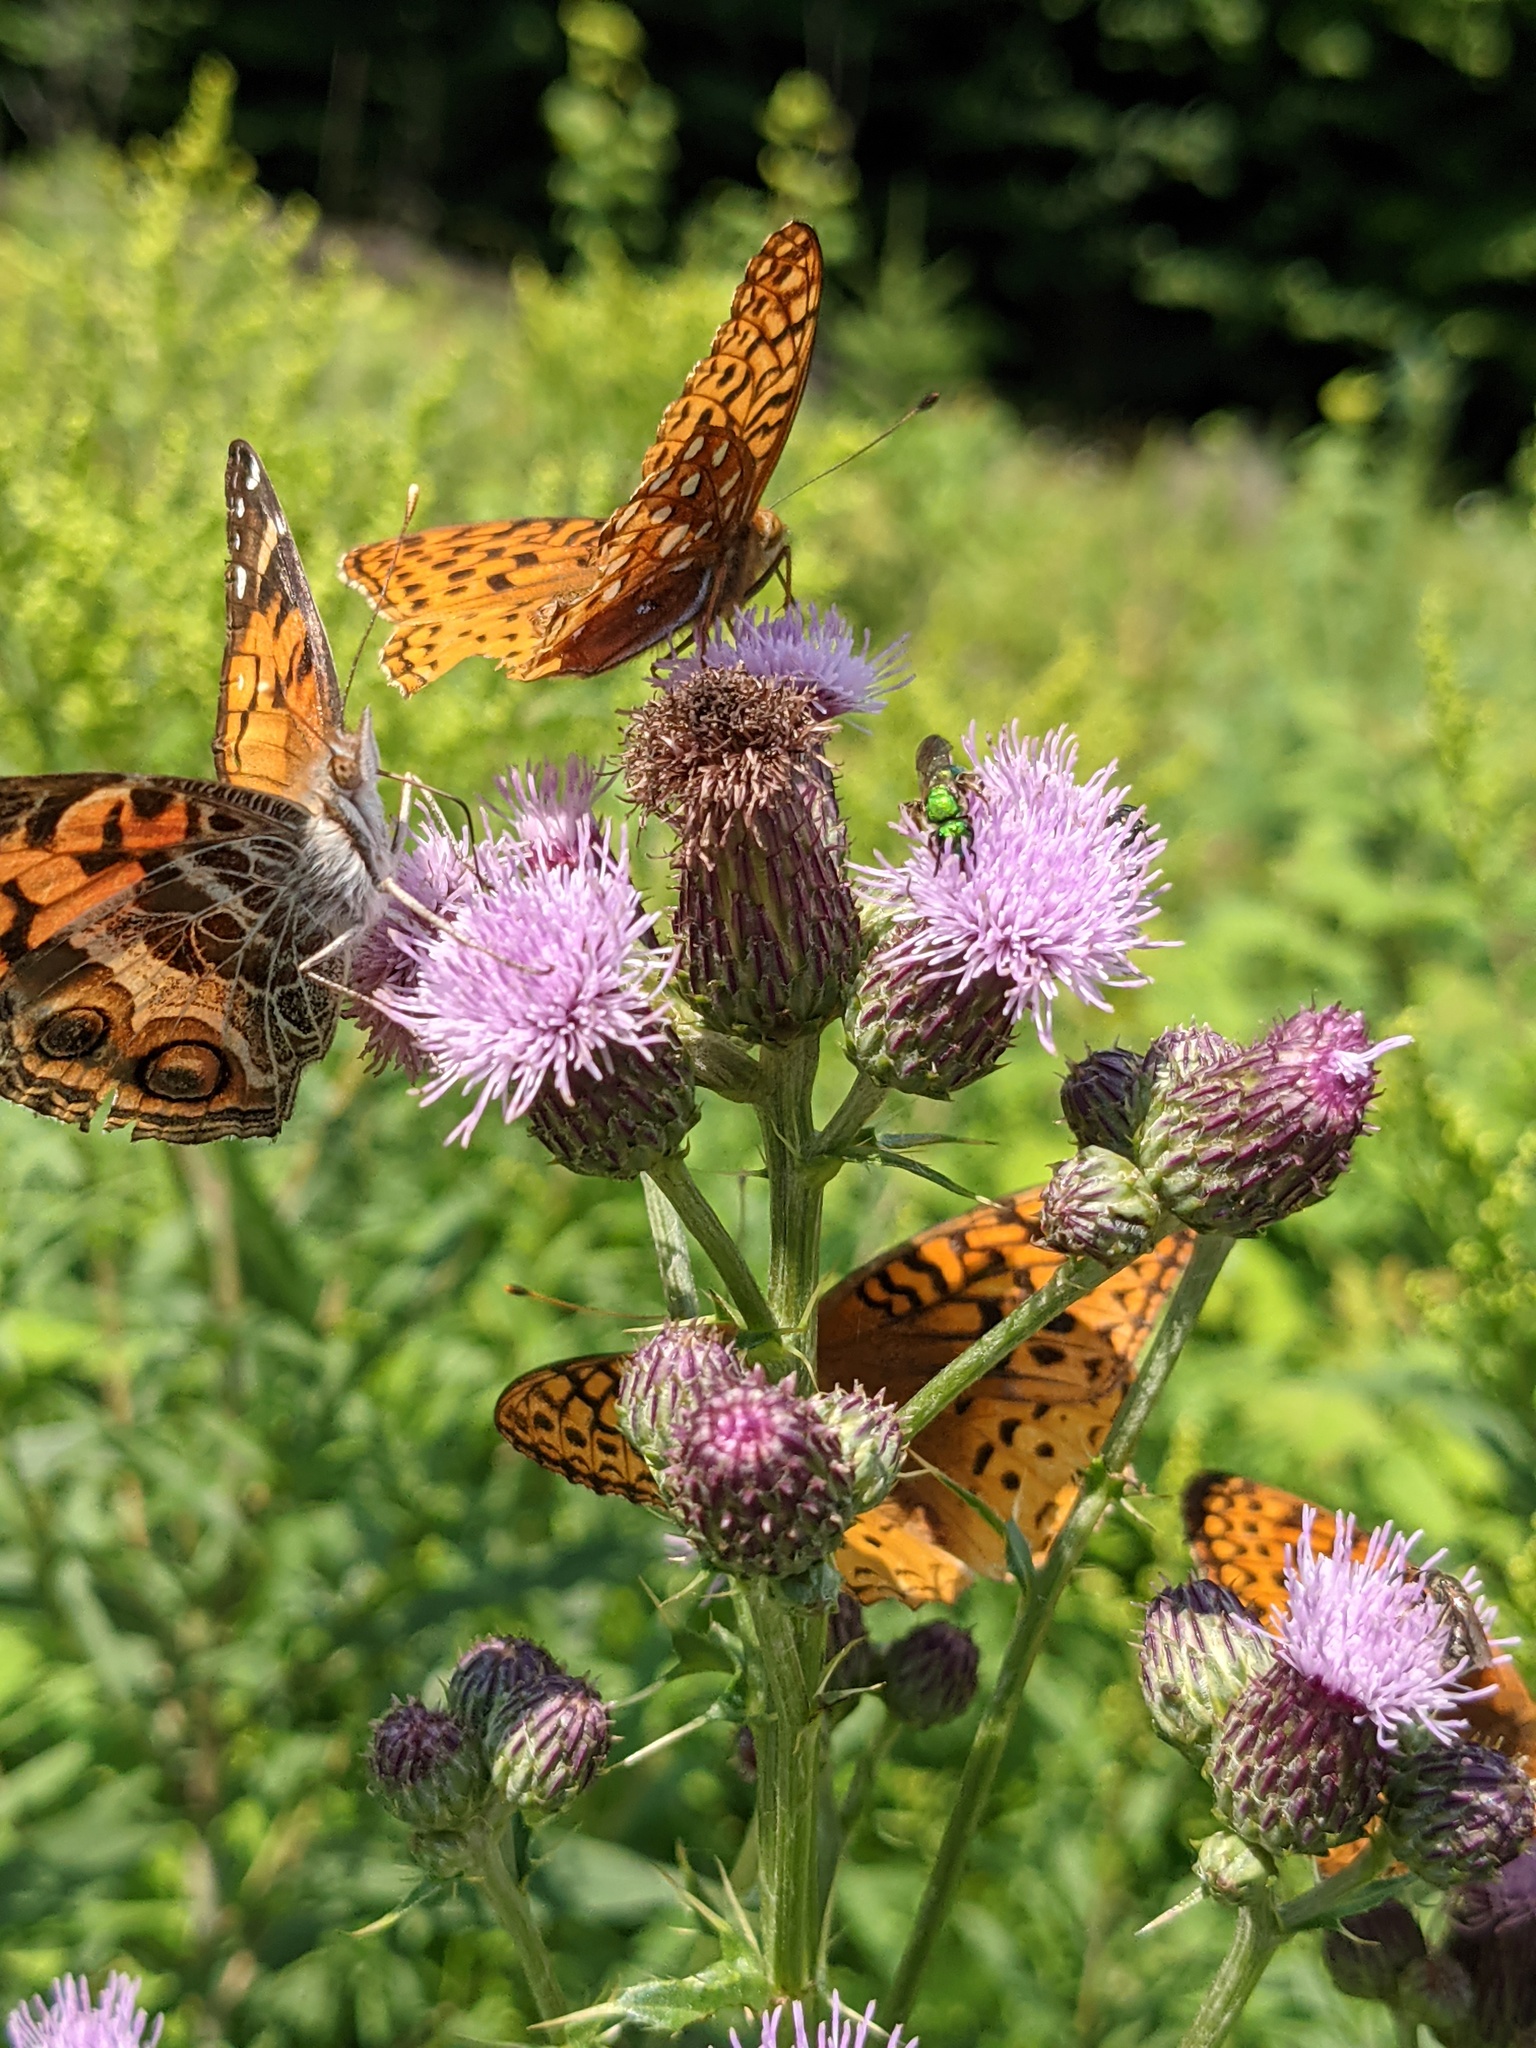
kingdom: Plantae
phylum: Tracheophyta
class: Magnoliopsida
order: Asterales
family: Asteraceae
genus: Cirsium
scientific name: Cirsium arvense
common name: Creeping thistle
